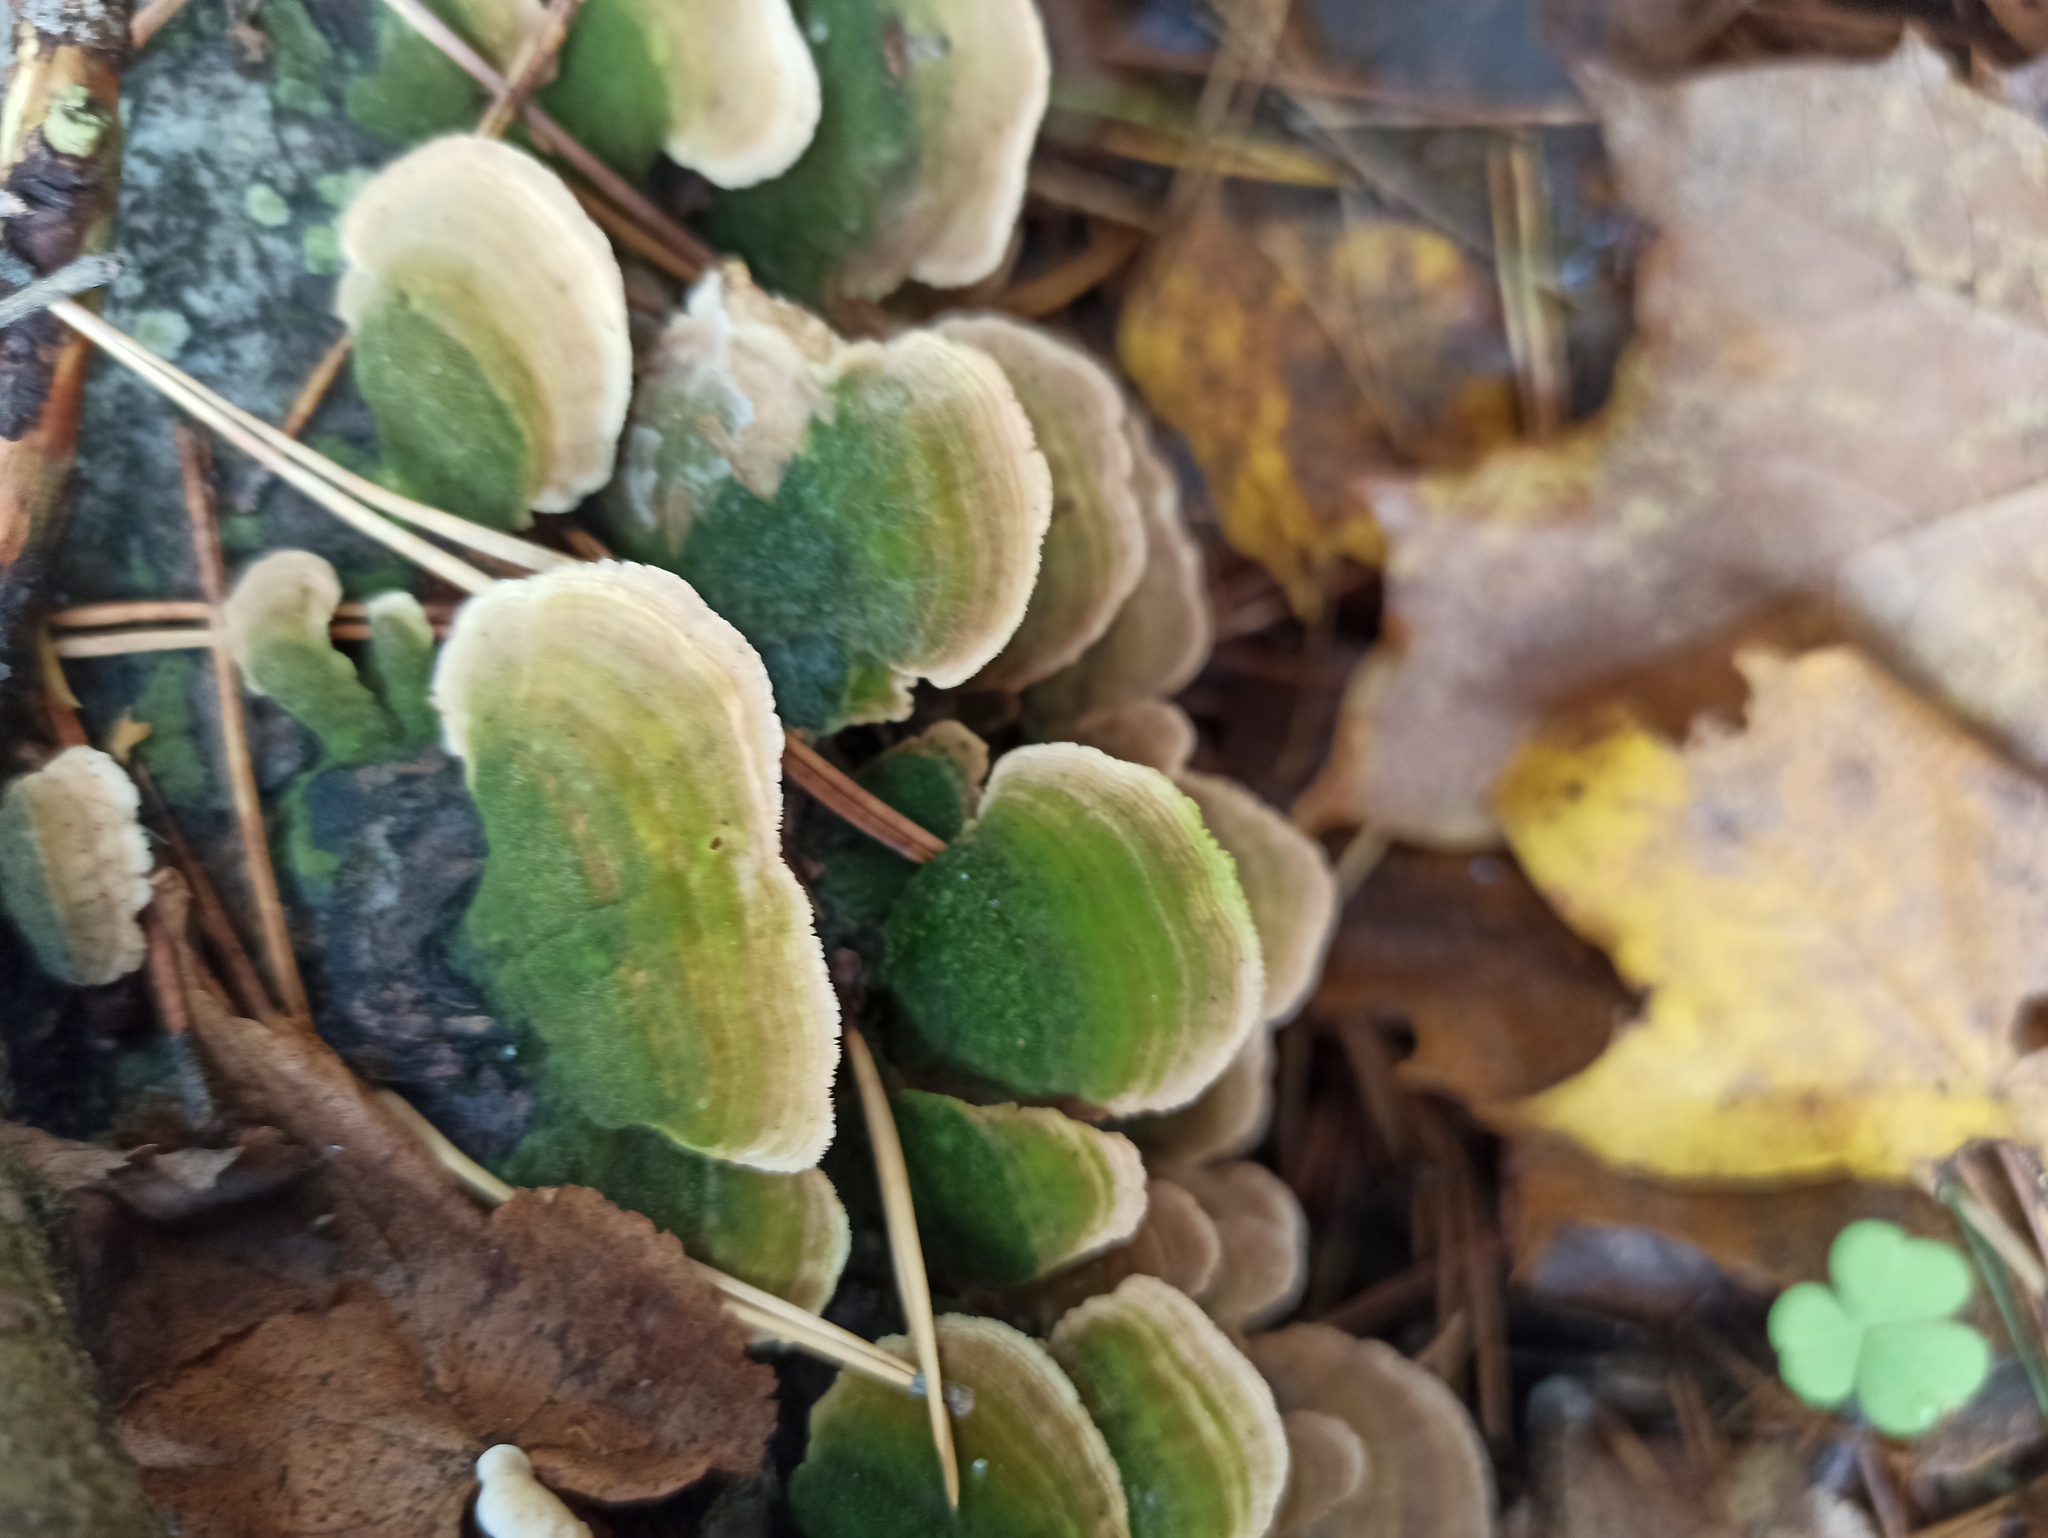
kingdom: Fungi
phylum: Basidiomycota
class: Agaricomycetes
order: Hymenochaetales
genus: Trichaptum
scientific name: Trichaptum biforme
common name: Violet-toothed polypore
